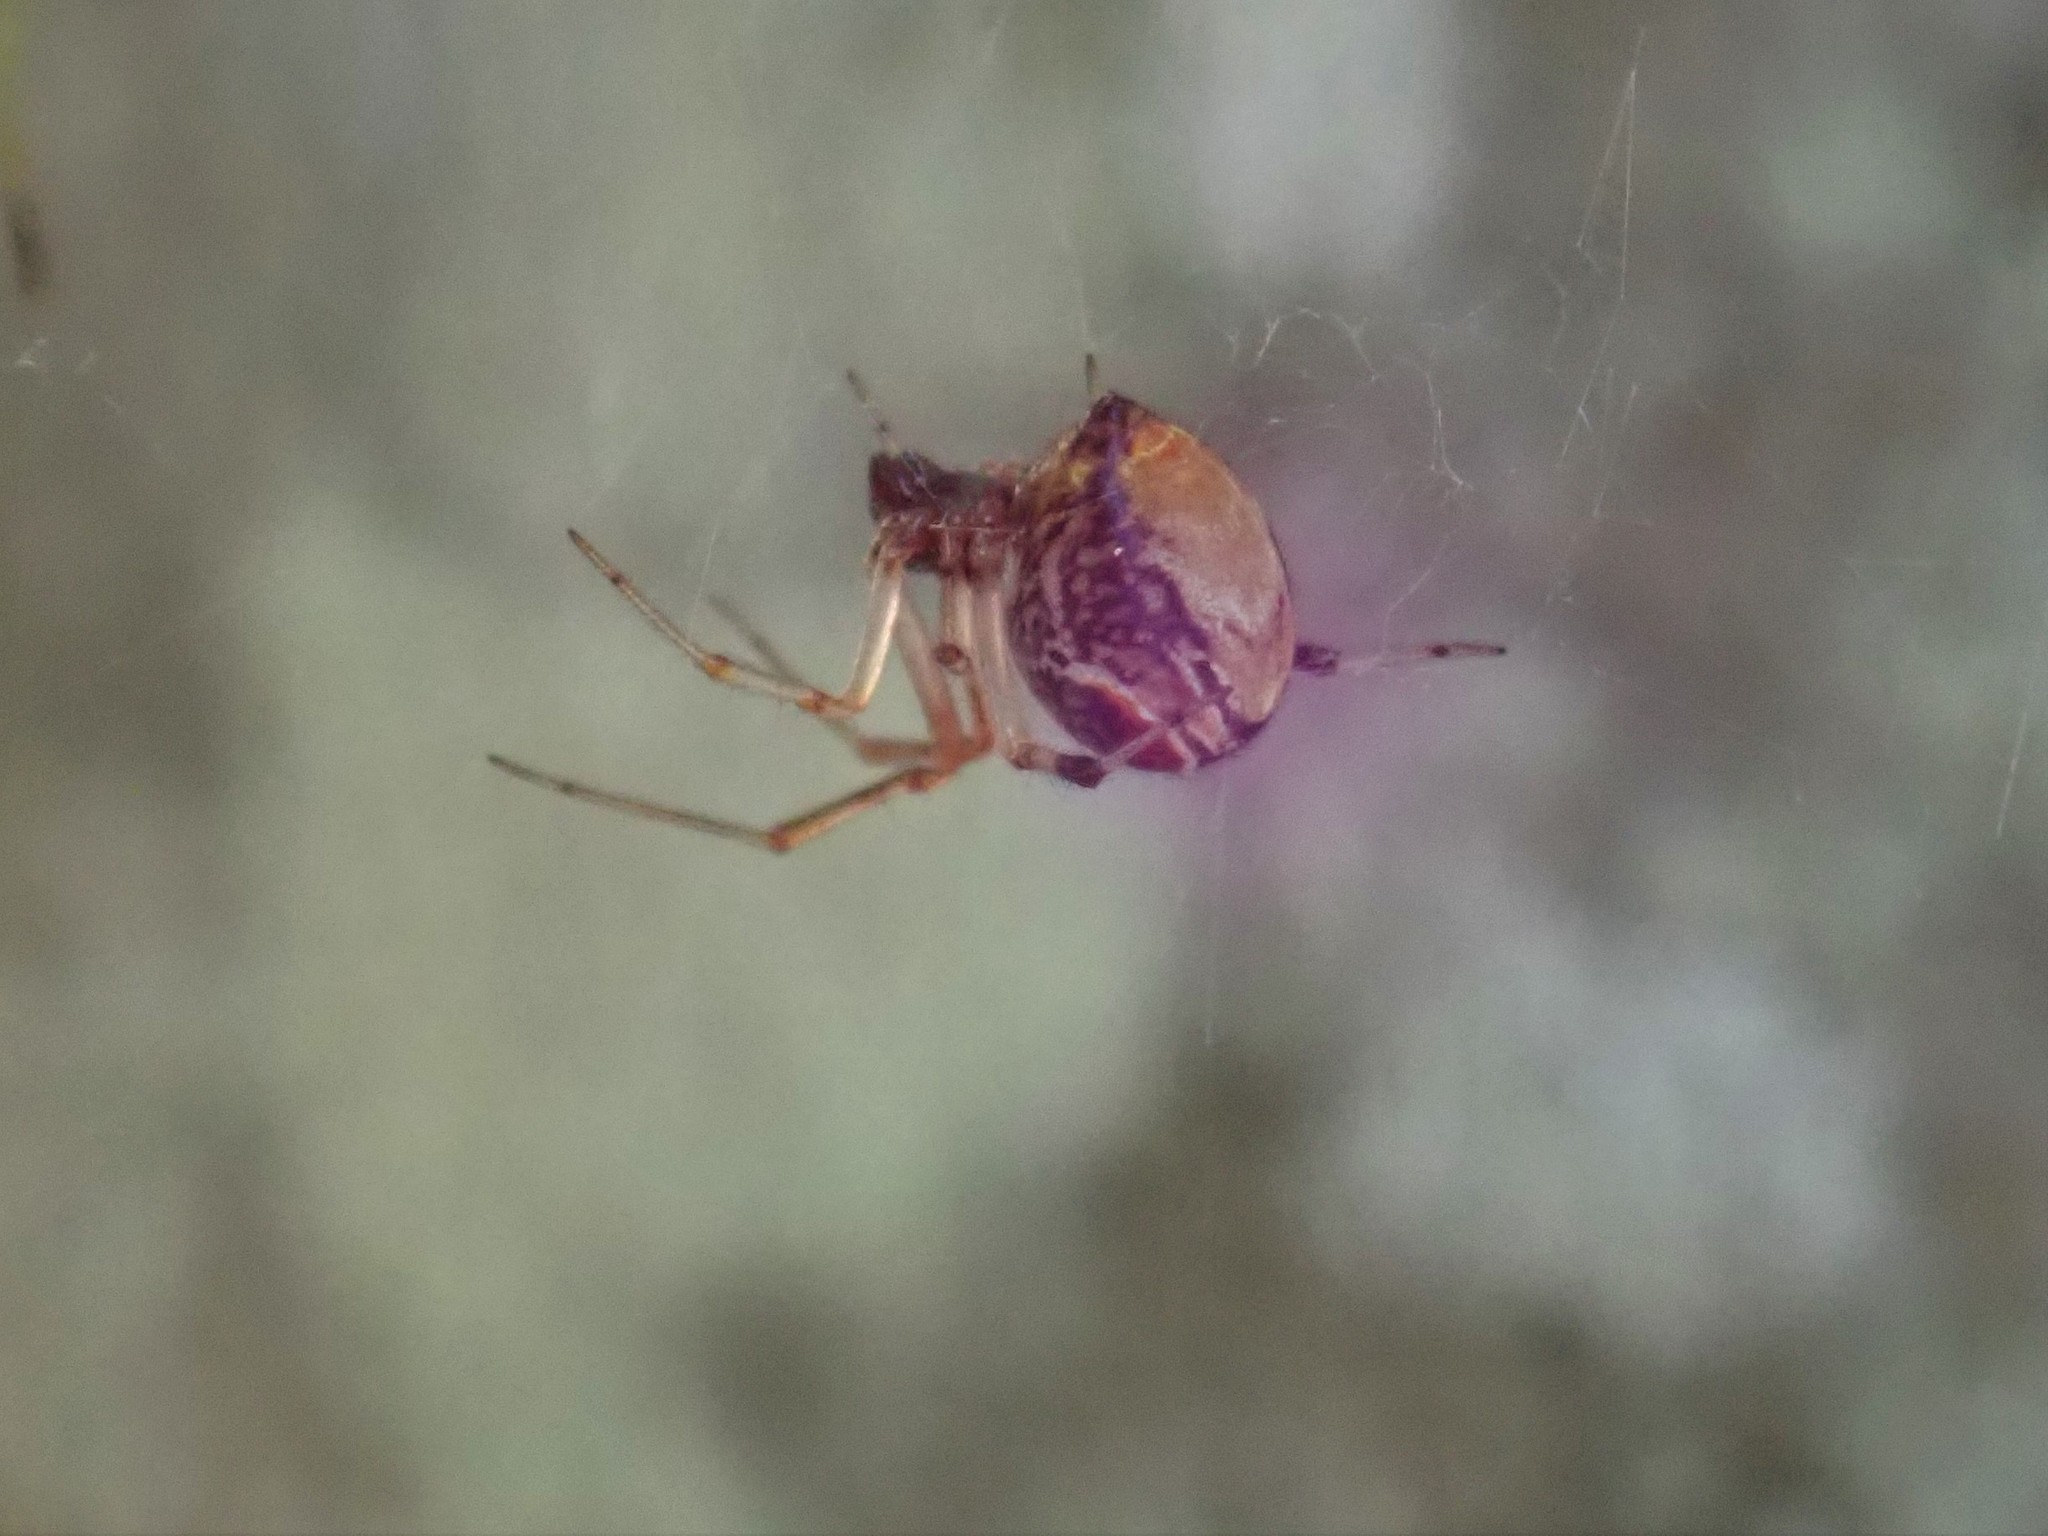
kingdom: Animalia
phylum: Arthropoda
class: Arachnida
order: Araneae
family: Theridiidae
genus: Parasteatoda
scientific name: Parasteatoda lunata
